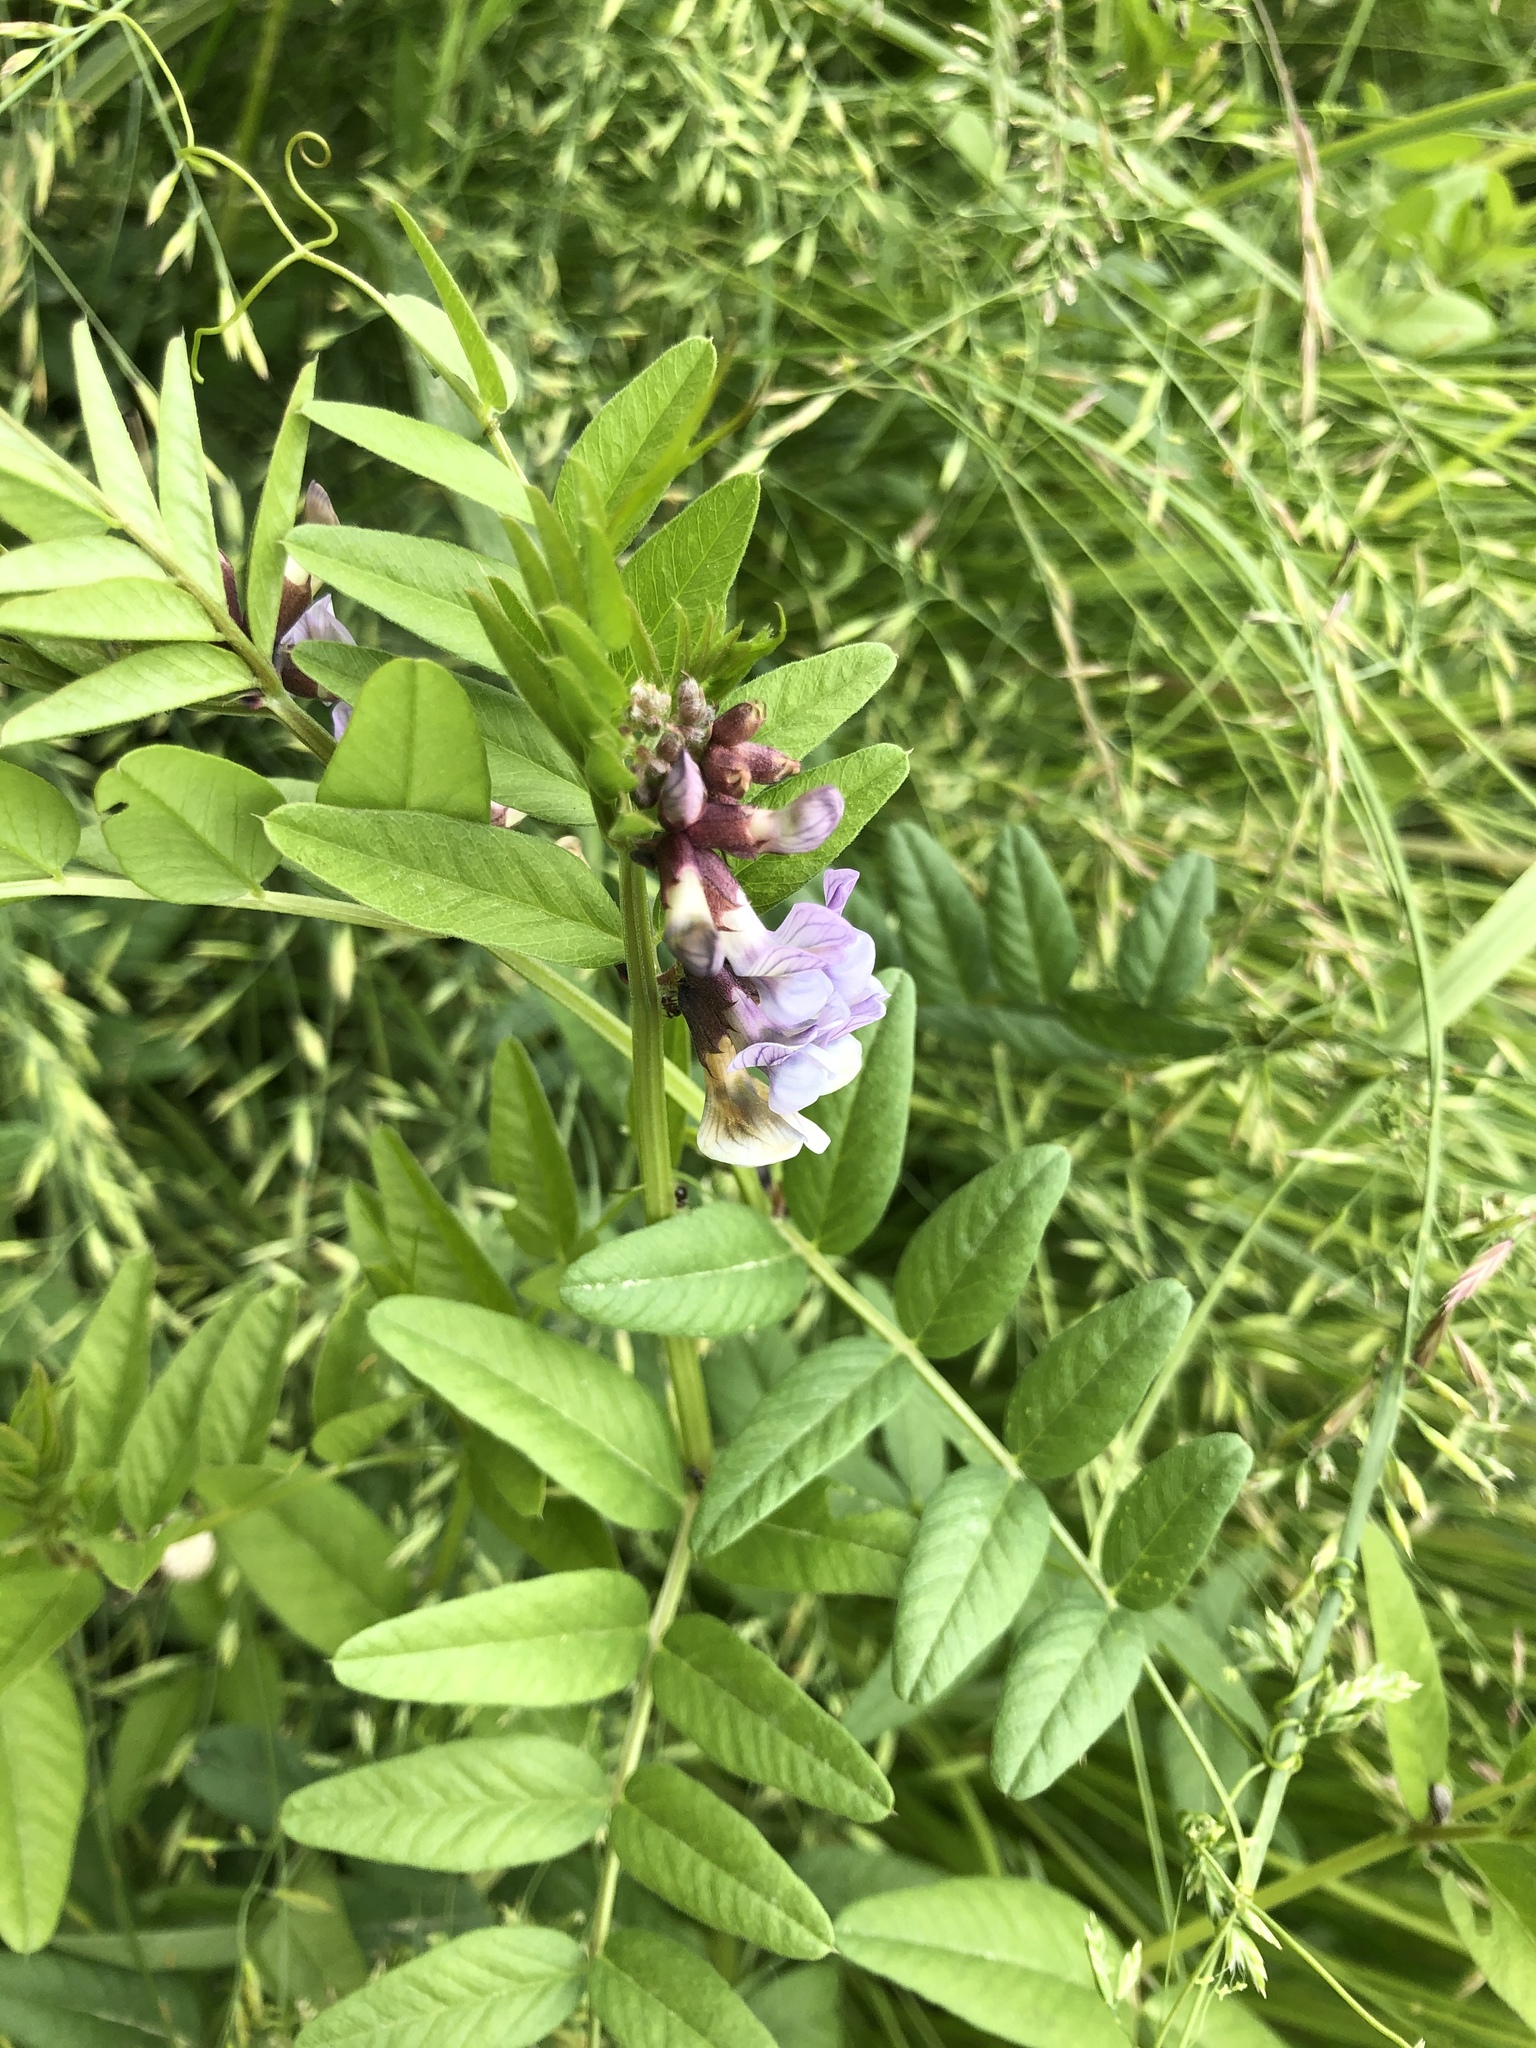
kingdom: Plantae
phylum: Tracheophyta
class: Magnoliopsida
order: Fabales
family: Fabaceae
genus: Vicia
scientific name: Vicia sepium
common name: Bush vetch
